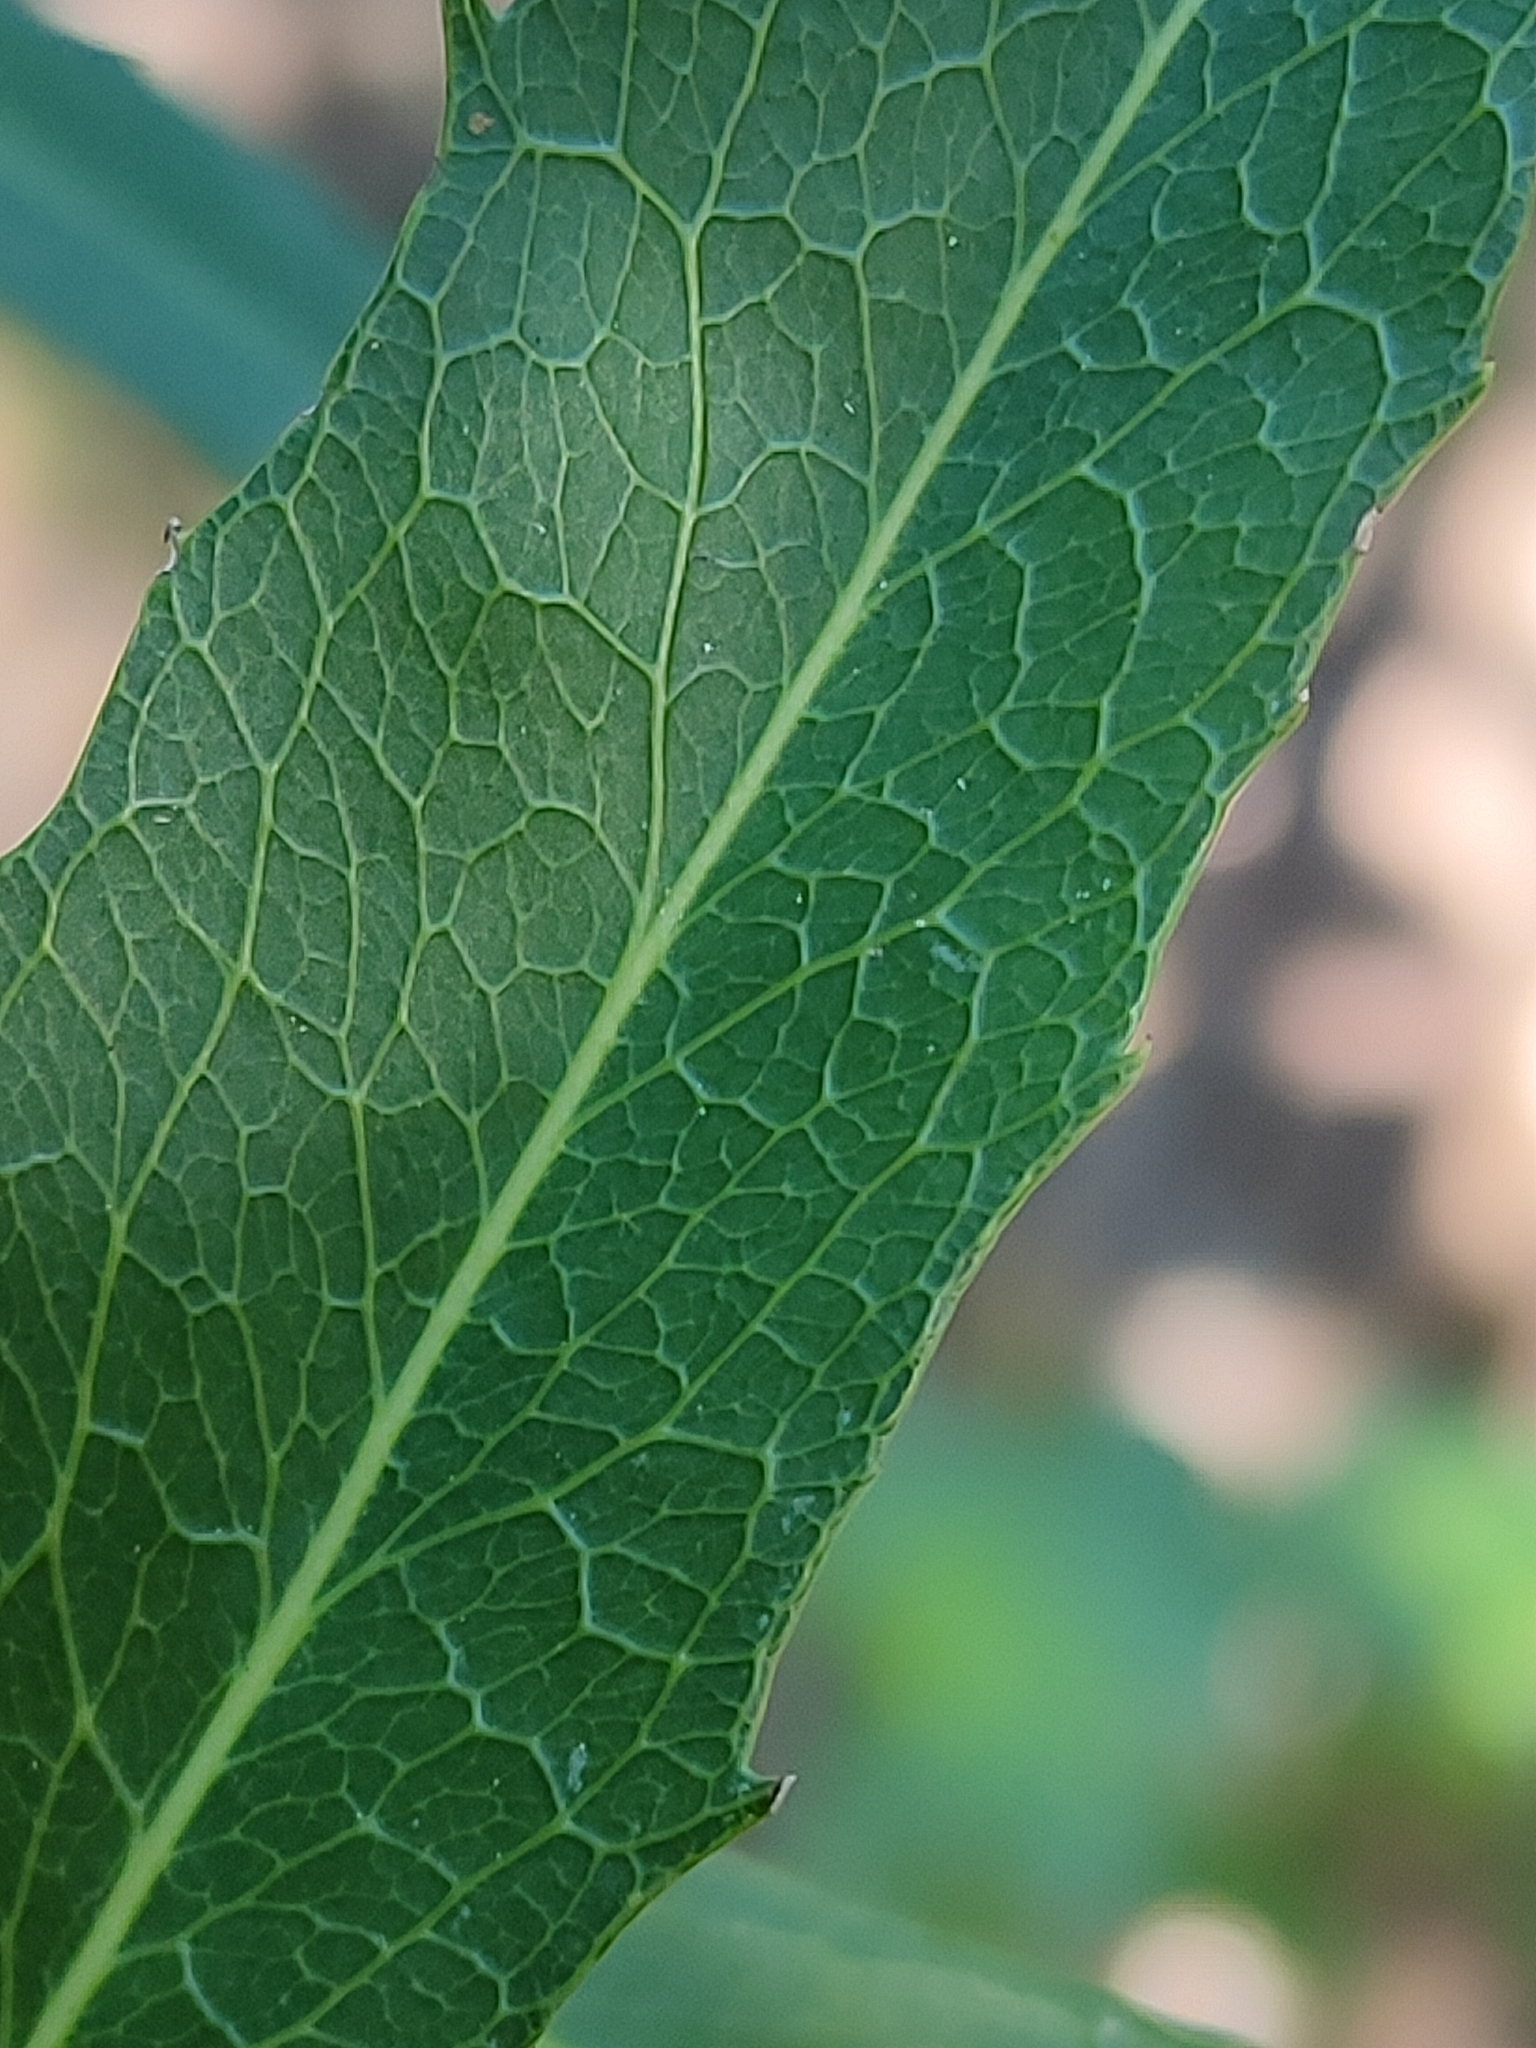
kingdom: Plantae
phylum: Tracheophyta
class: Magnoliopsida
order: Celastrales
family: Celastraceae
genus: Denhamia
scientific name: Denhamia pittosporoides
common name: Orange-boxwood
